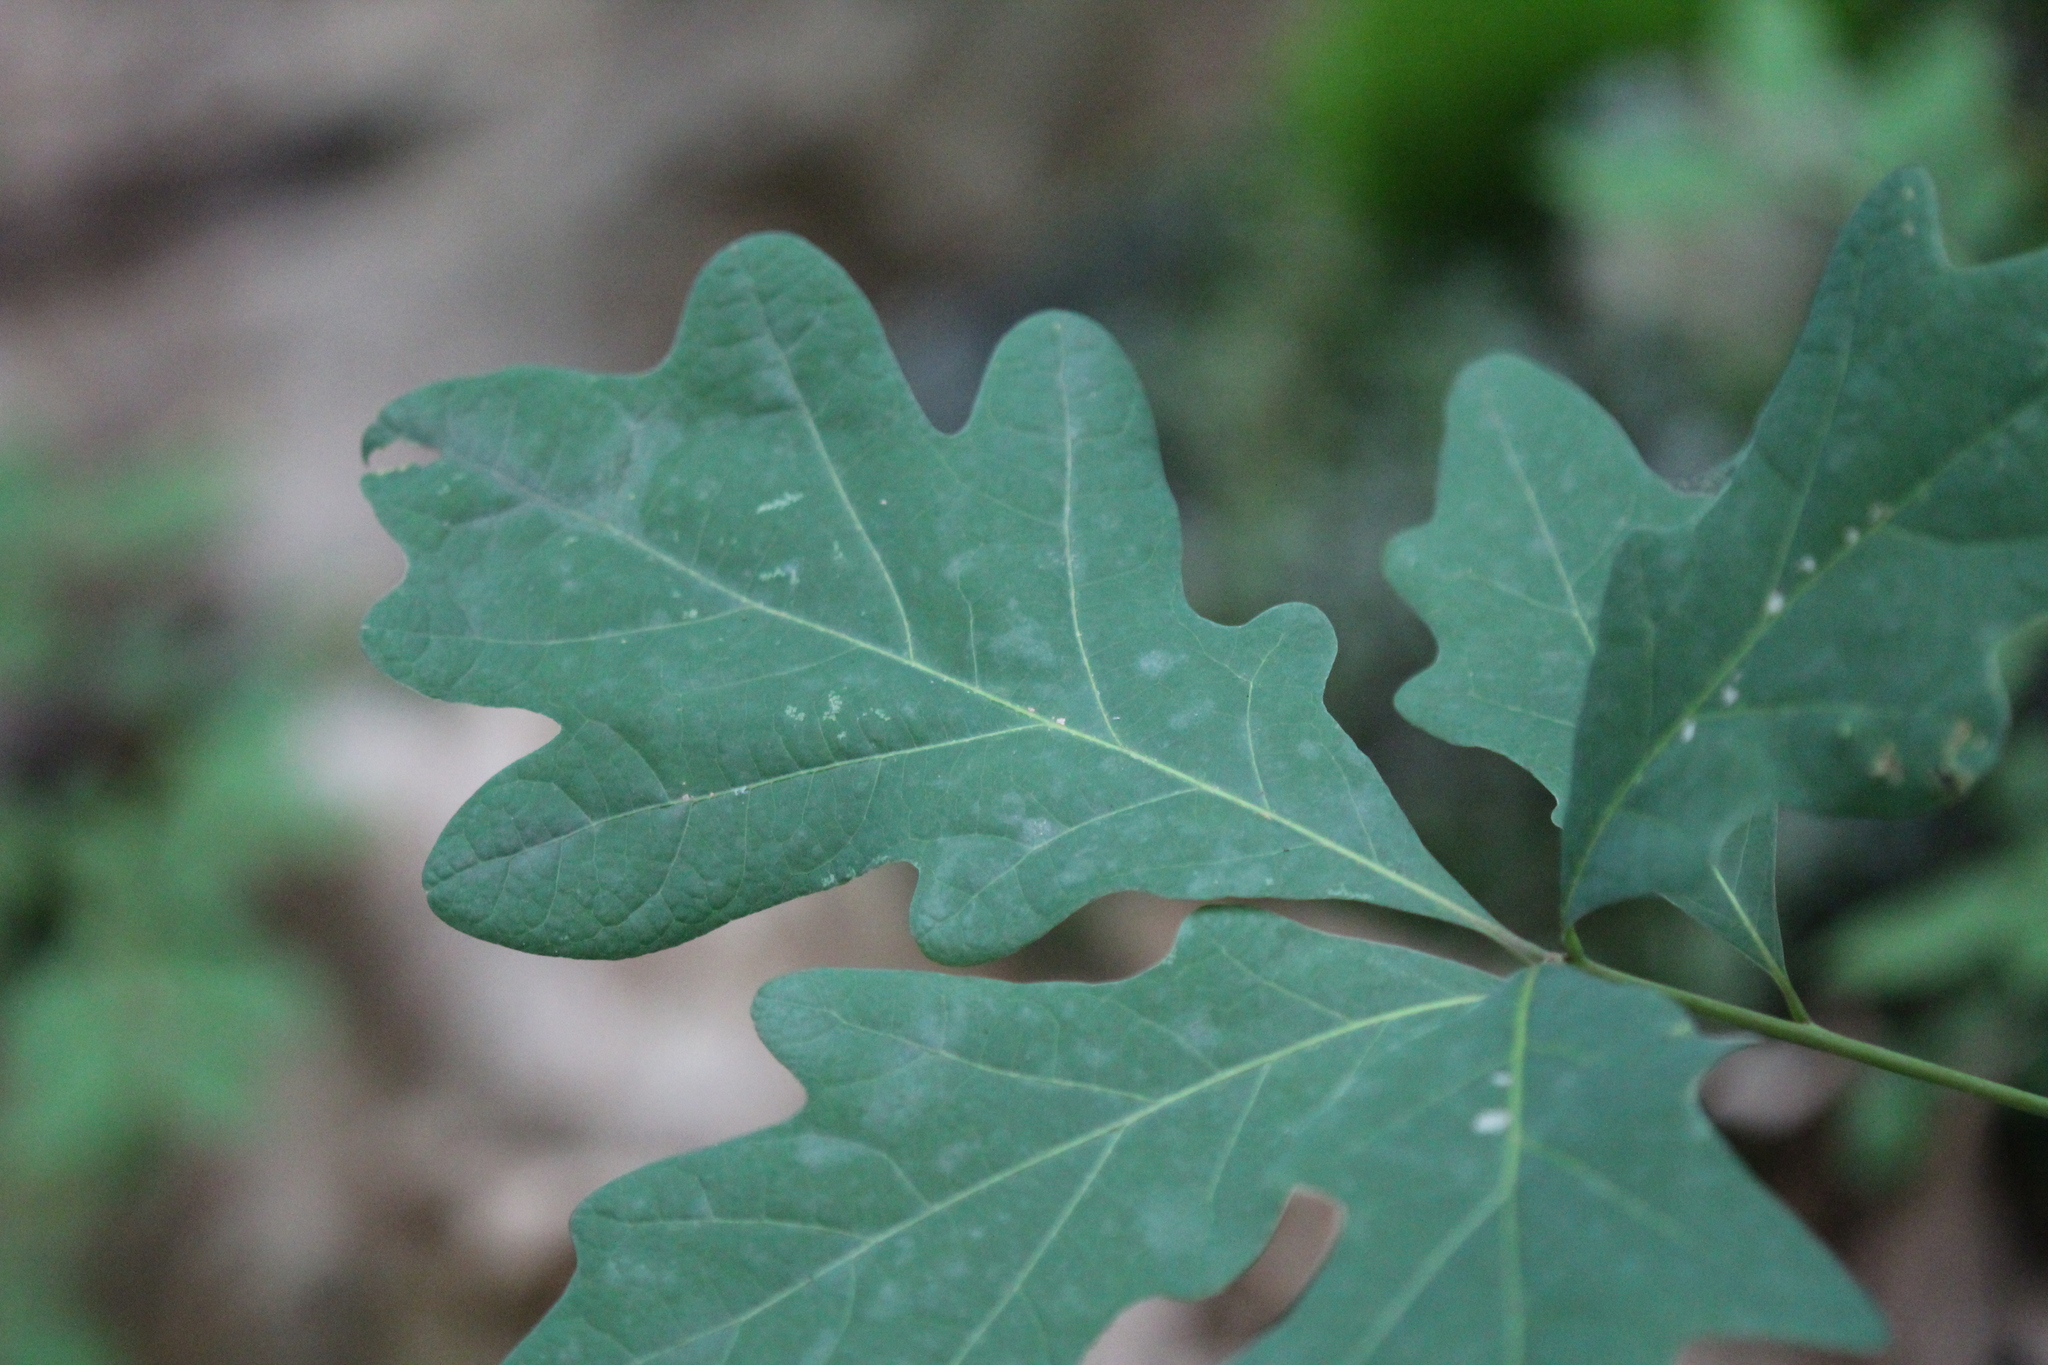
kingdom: Plantae
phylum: Tracheophyta
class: Magnoliopsida
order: Fagales
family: Fagaceae
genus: Quercus
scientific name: Quercus alba
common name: White oak
